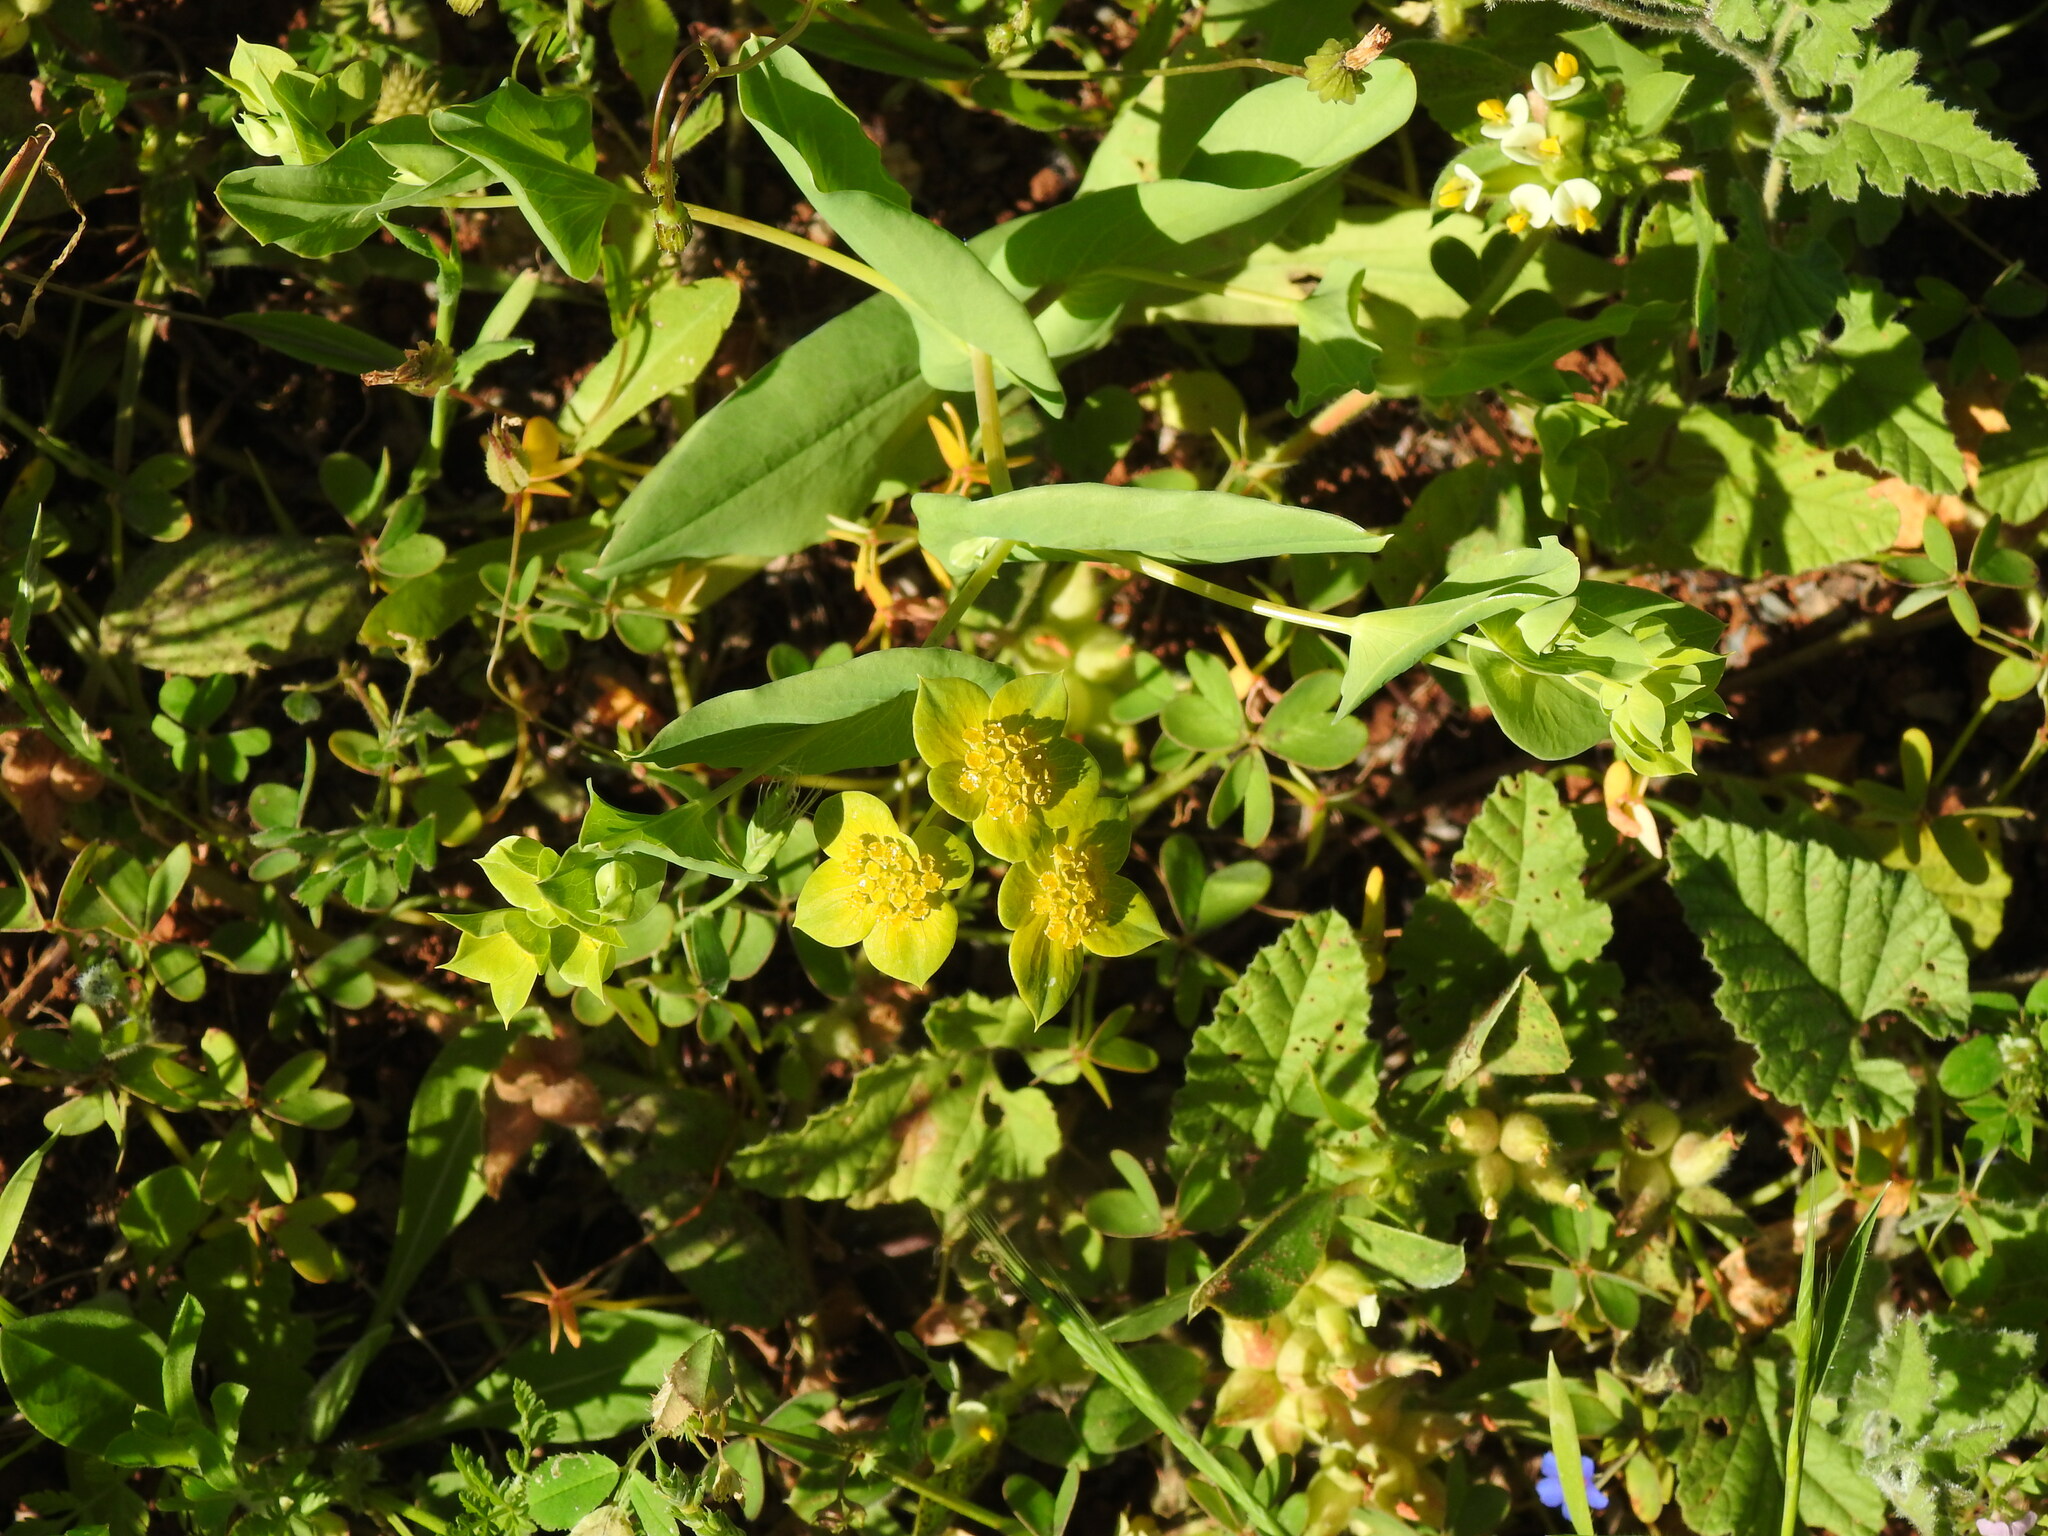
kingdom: Plantae
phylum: Tracheophyta
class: Magnoliopsida
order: Apiales
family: Apiaceae
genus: Bupleurum
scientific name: Bupleurum subovatum
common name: False thorow-wax
